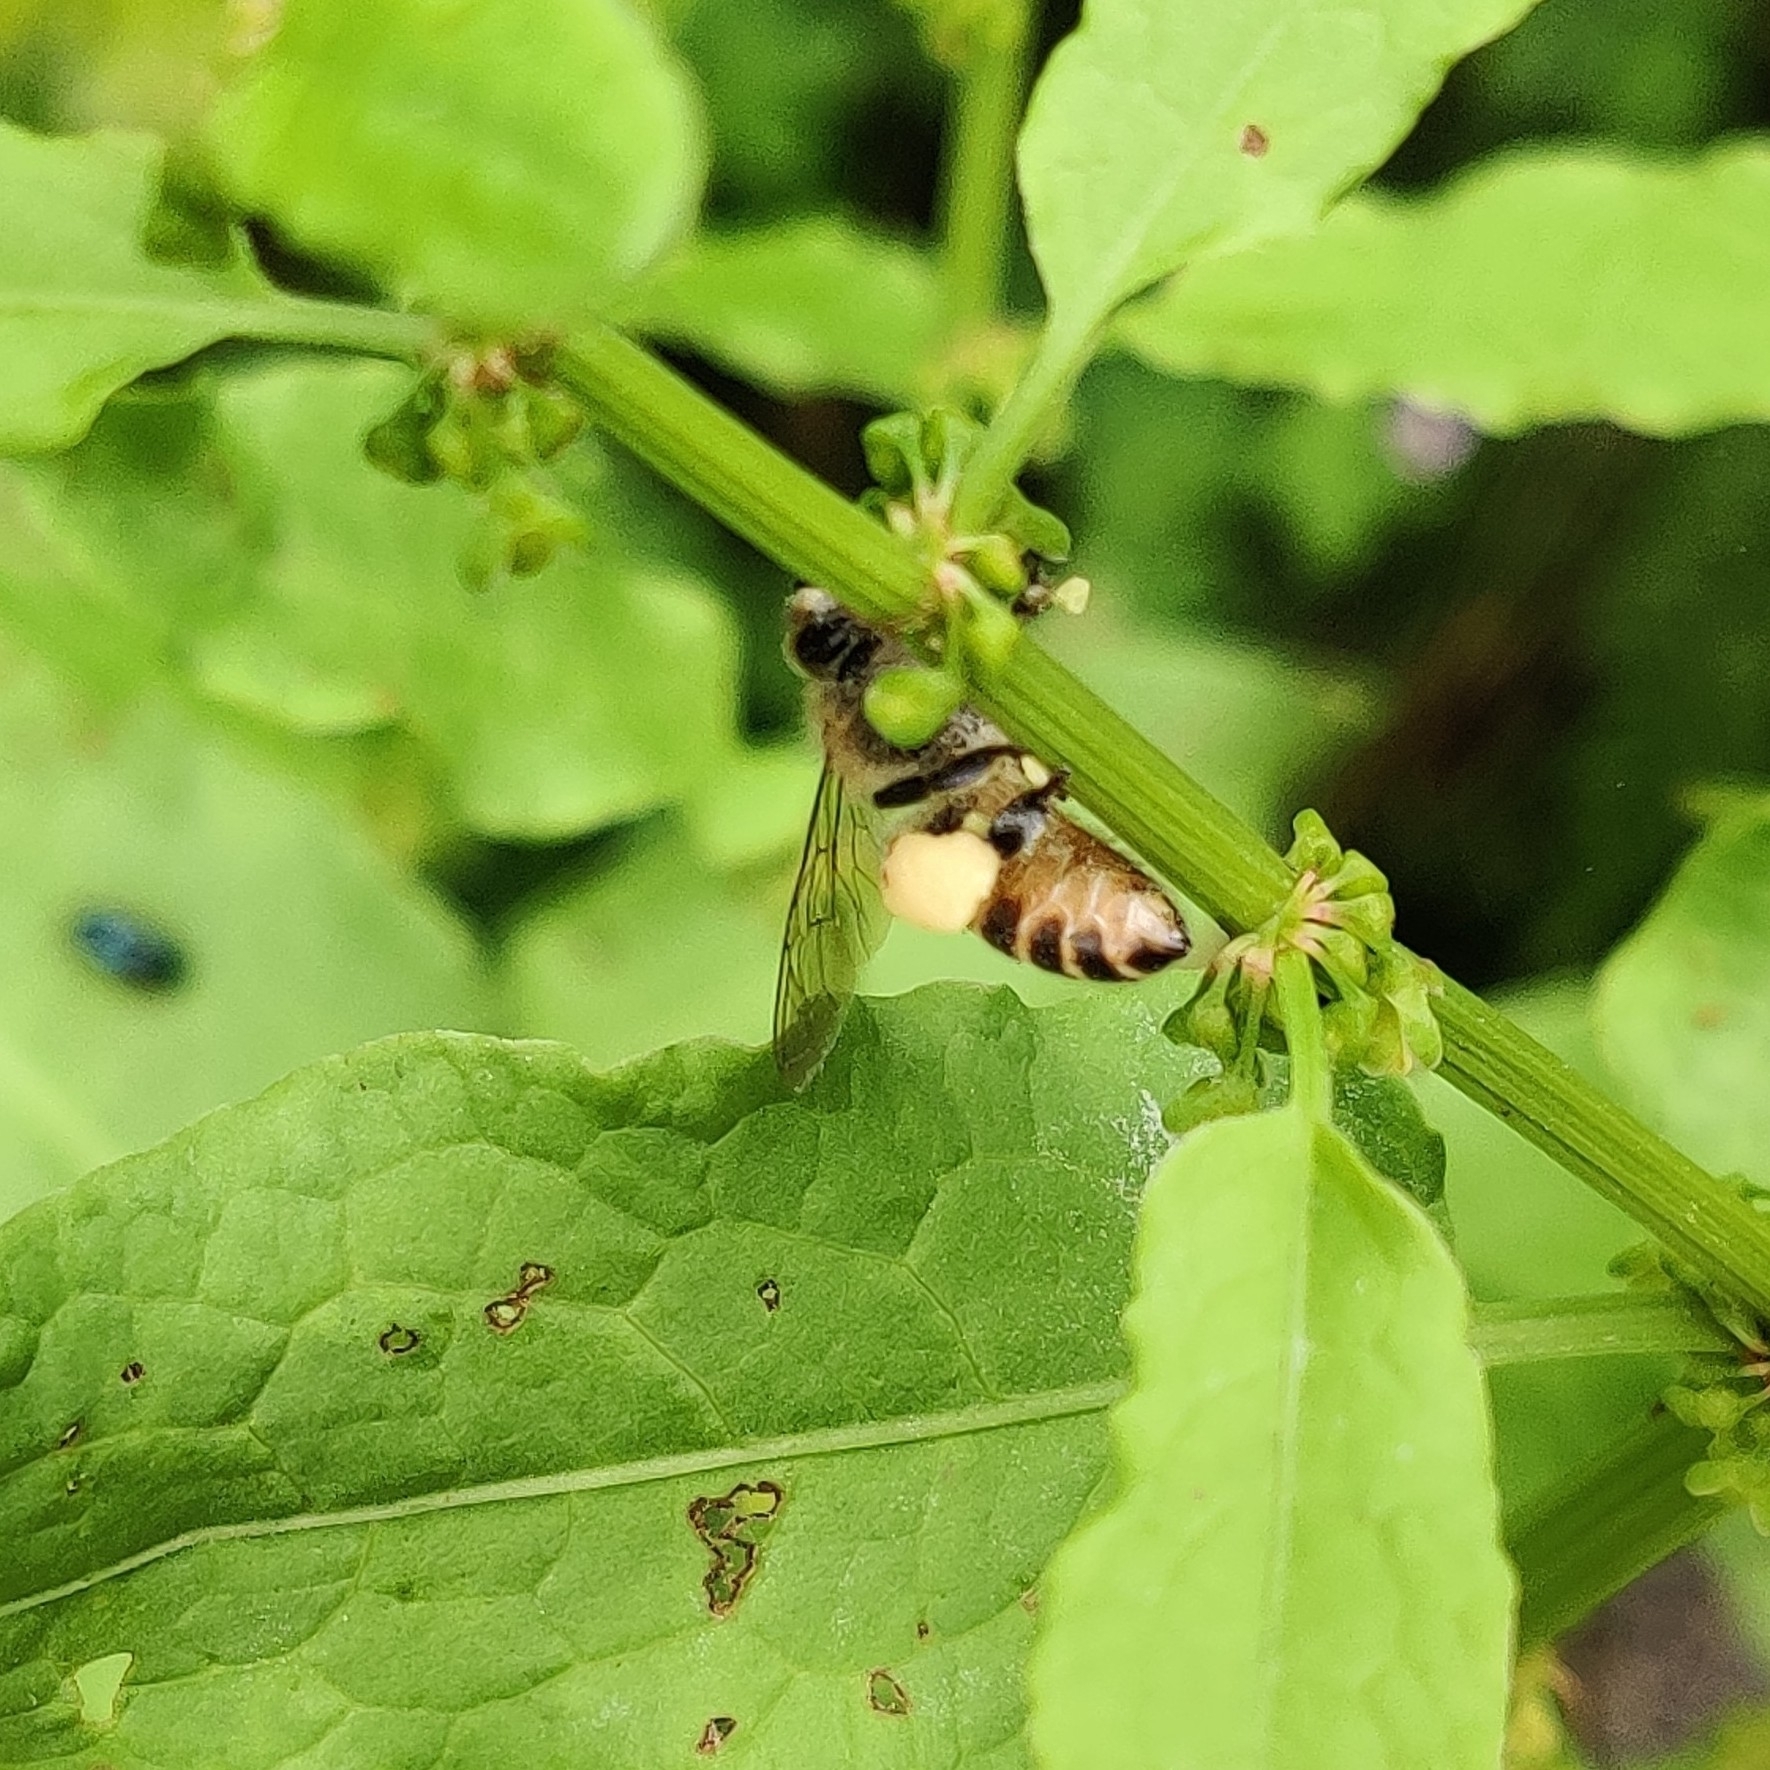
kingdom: Animalia
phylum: Arthropoda
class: Insecta
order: Hymenoptera
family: Apidae
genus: Apis
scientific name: Apis cerana
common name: Honey bee
